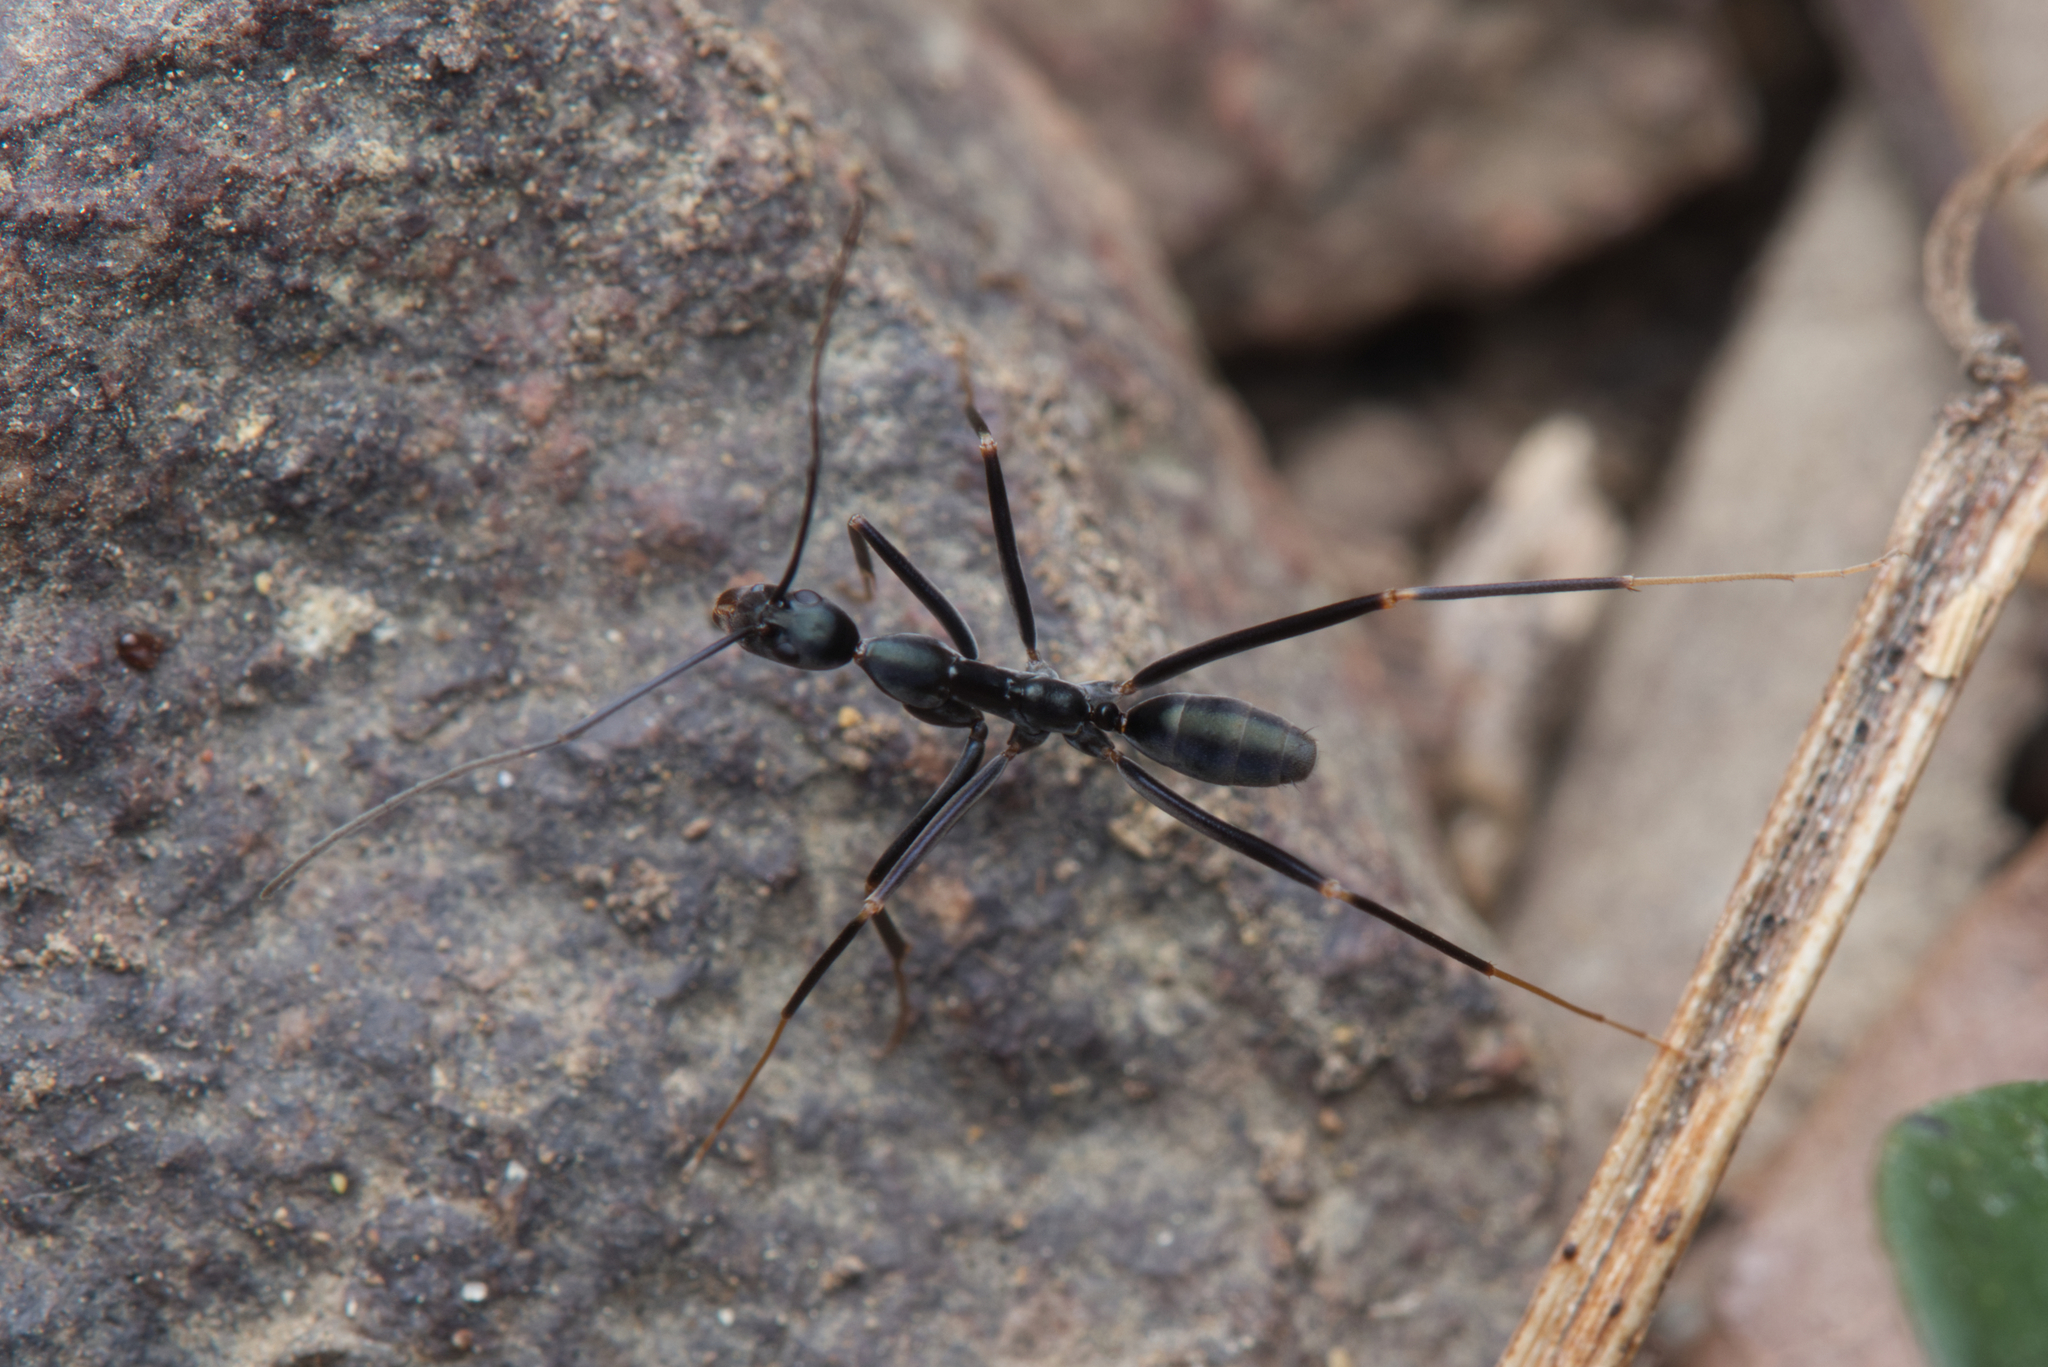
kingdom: Animalia
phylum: Arthropoda
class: Insecta
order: Hymenoptera
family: Formicidae
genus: Leptomyrmex
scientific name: Leptomyrmex mjobergi
